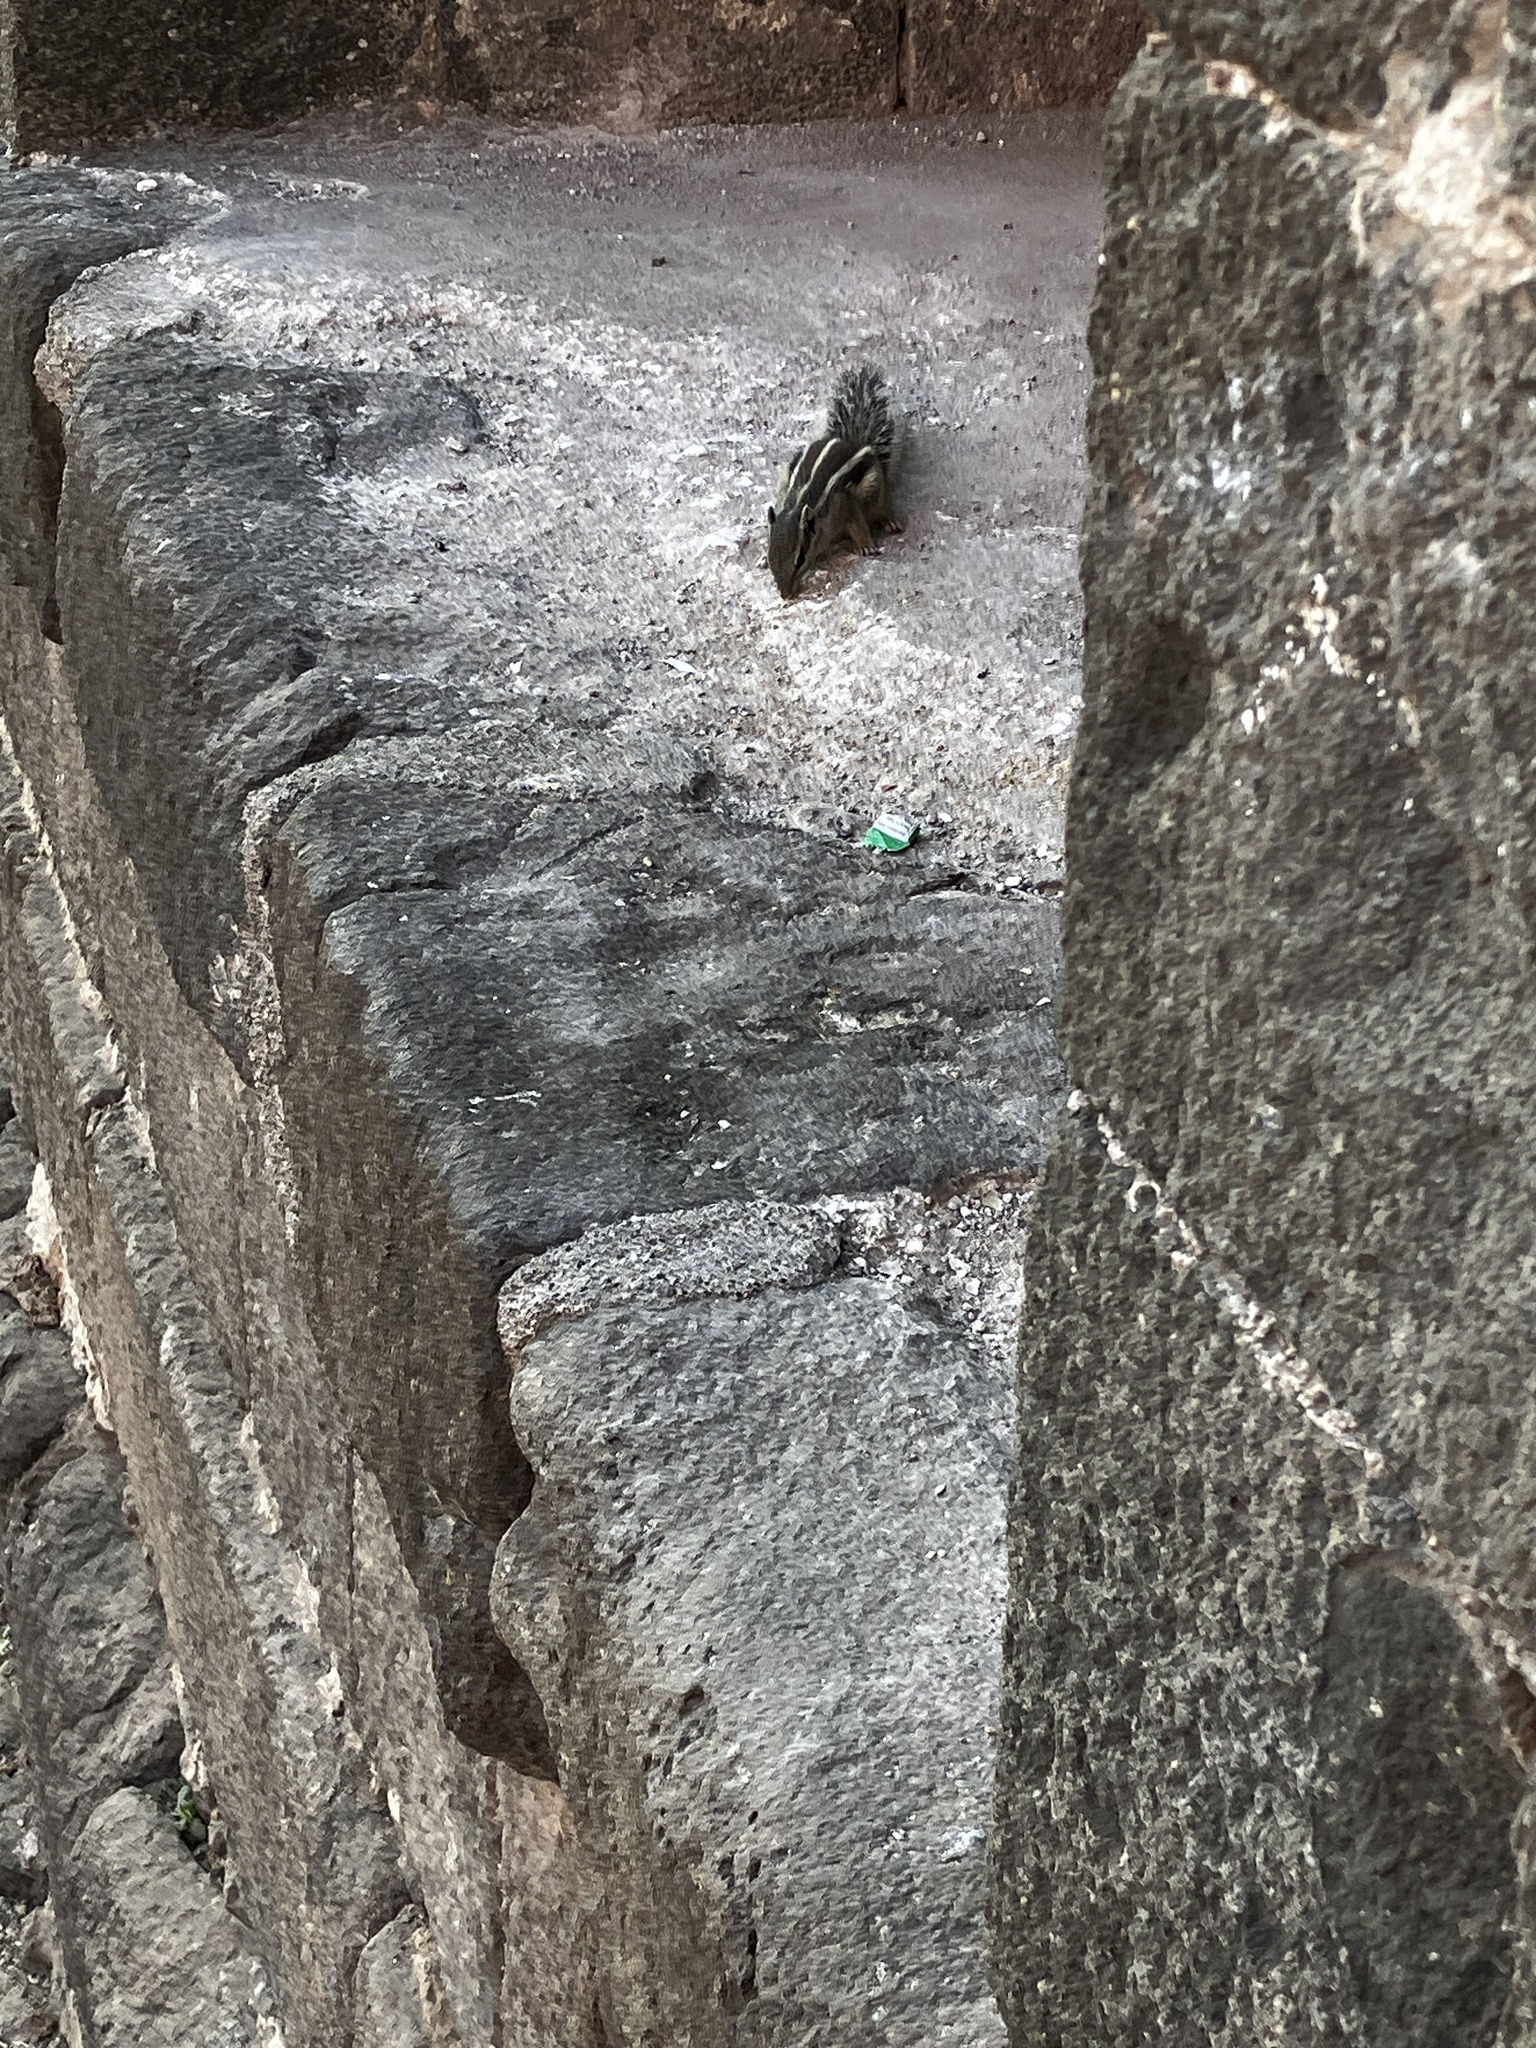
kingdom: Animalia
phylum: Chordata
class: Mammalia
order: Rodentia
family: Sciuridae
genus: Funambulus
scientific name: Funambulus pennantii
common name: Northern palm squirrel
